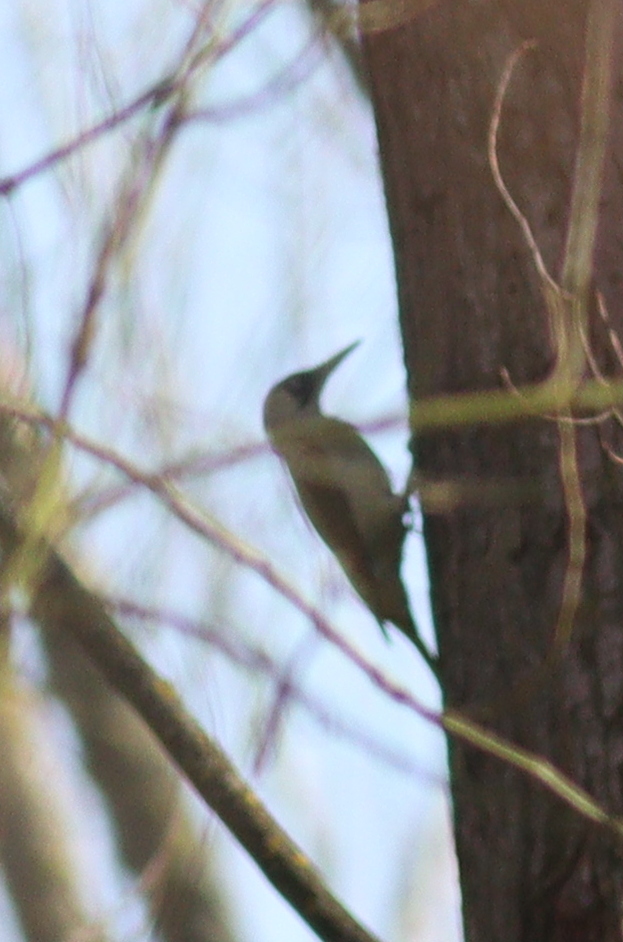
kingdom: Animalia
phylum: Chordata
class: Aves
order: Piciformes
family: Picidae
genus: Picus
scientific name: Picus viridis
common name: European green woodpecker
